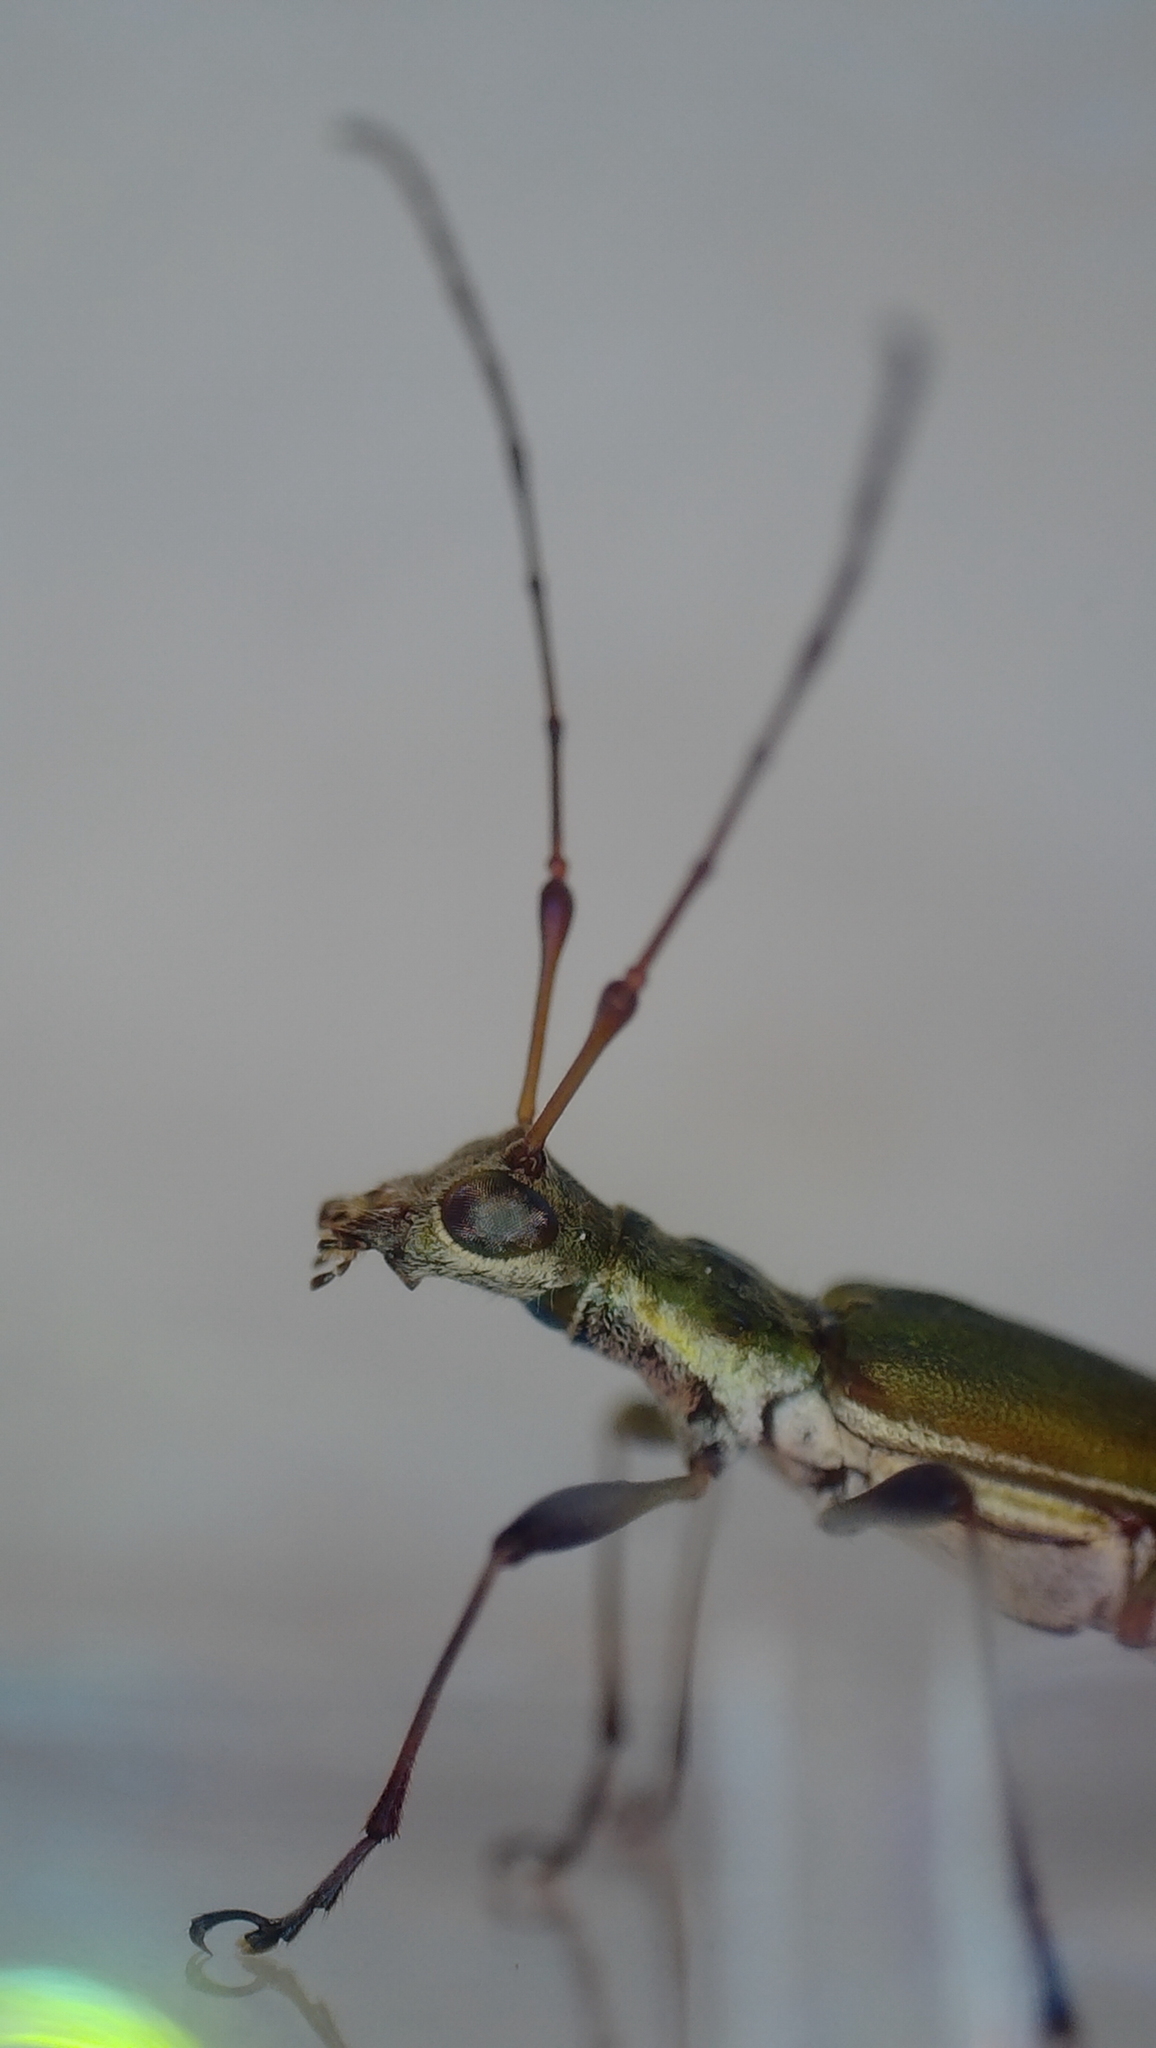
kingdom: Animalia
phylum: Arthropoda
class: Insecta
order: Coleoptera
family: Cerambycidae
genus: Calliprason
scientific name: Calliprason sinclairi
